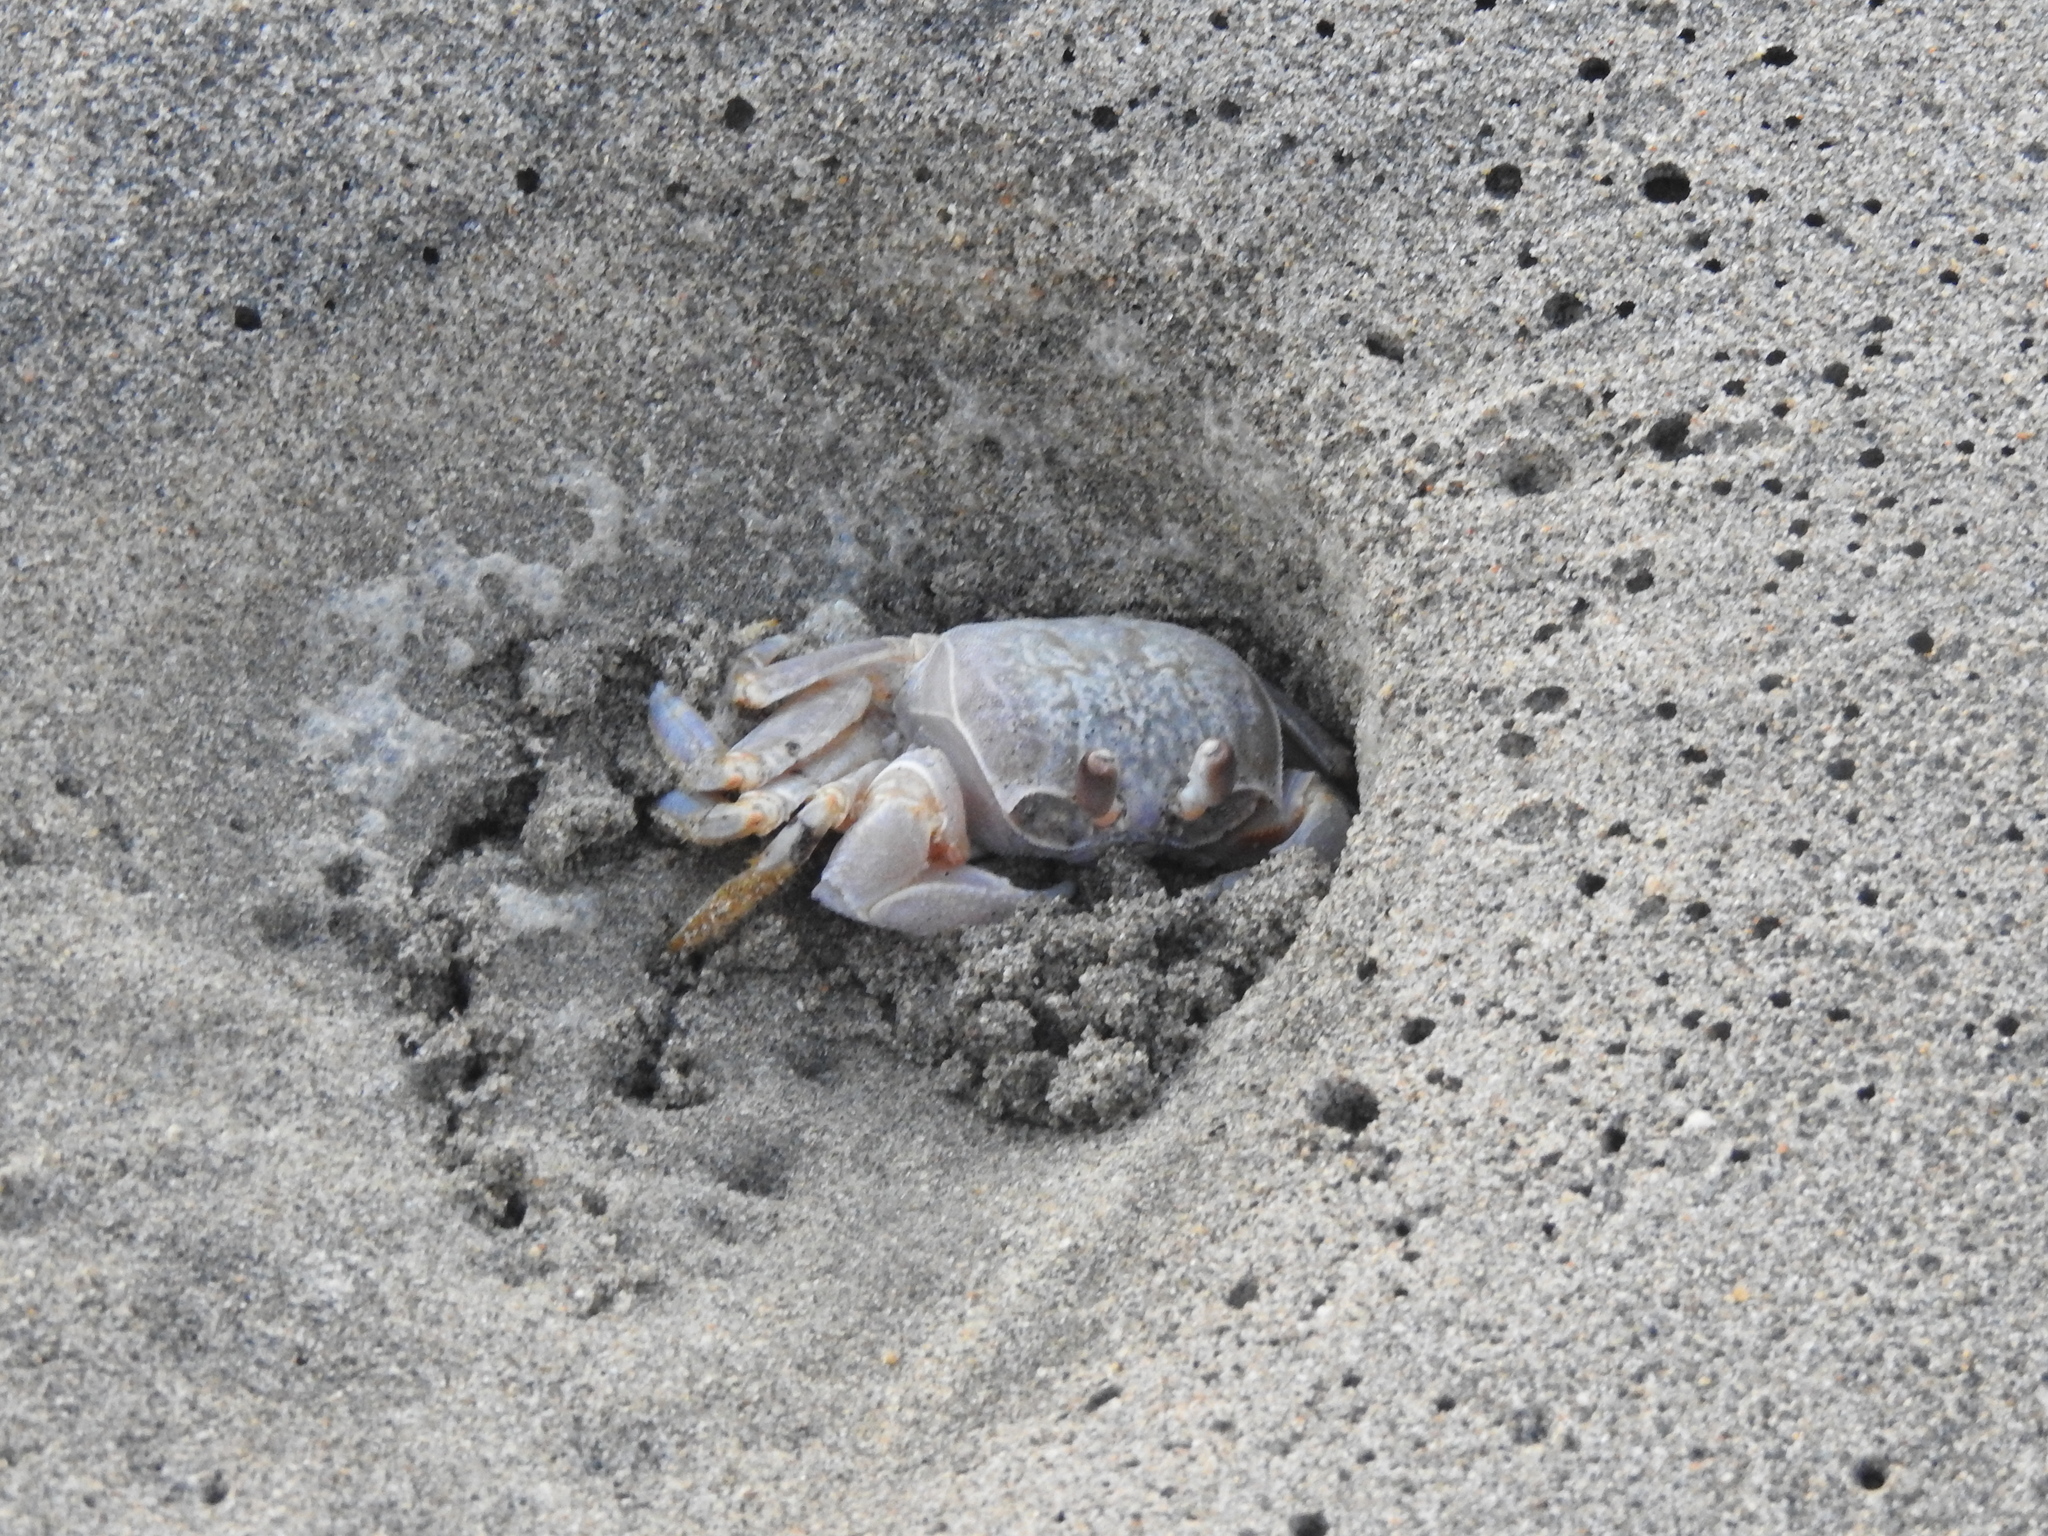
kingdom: Animalia
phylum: Arthropoda
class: Malacostraca
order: Decapoda
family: Ocypodidae
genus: Ocypode
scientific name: Ocypode occidentalis
